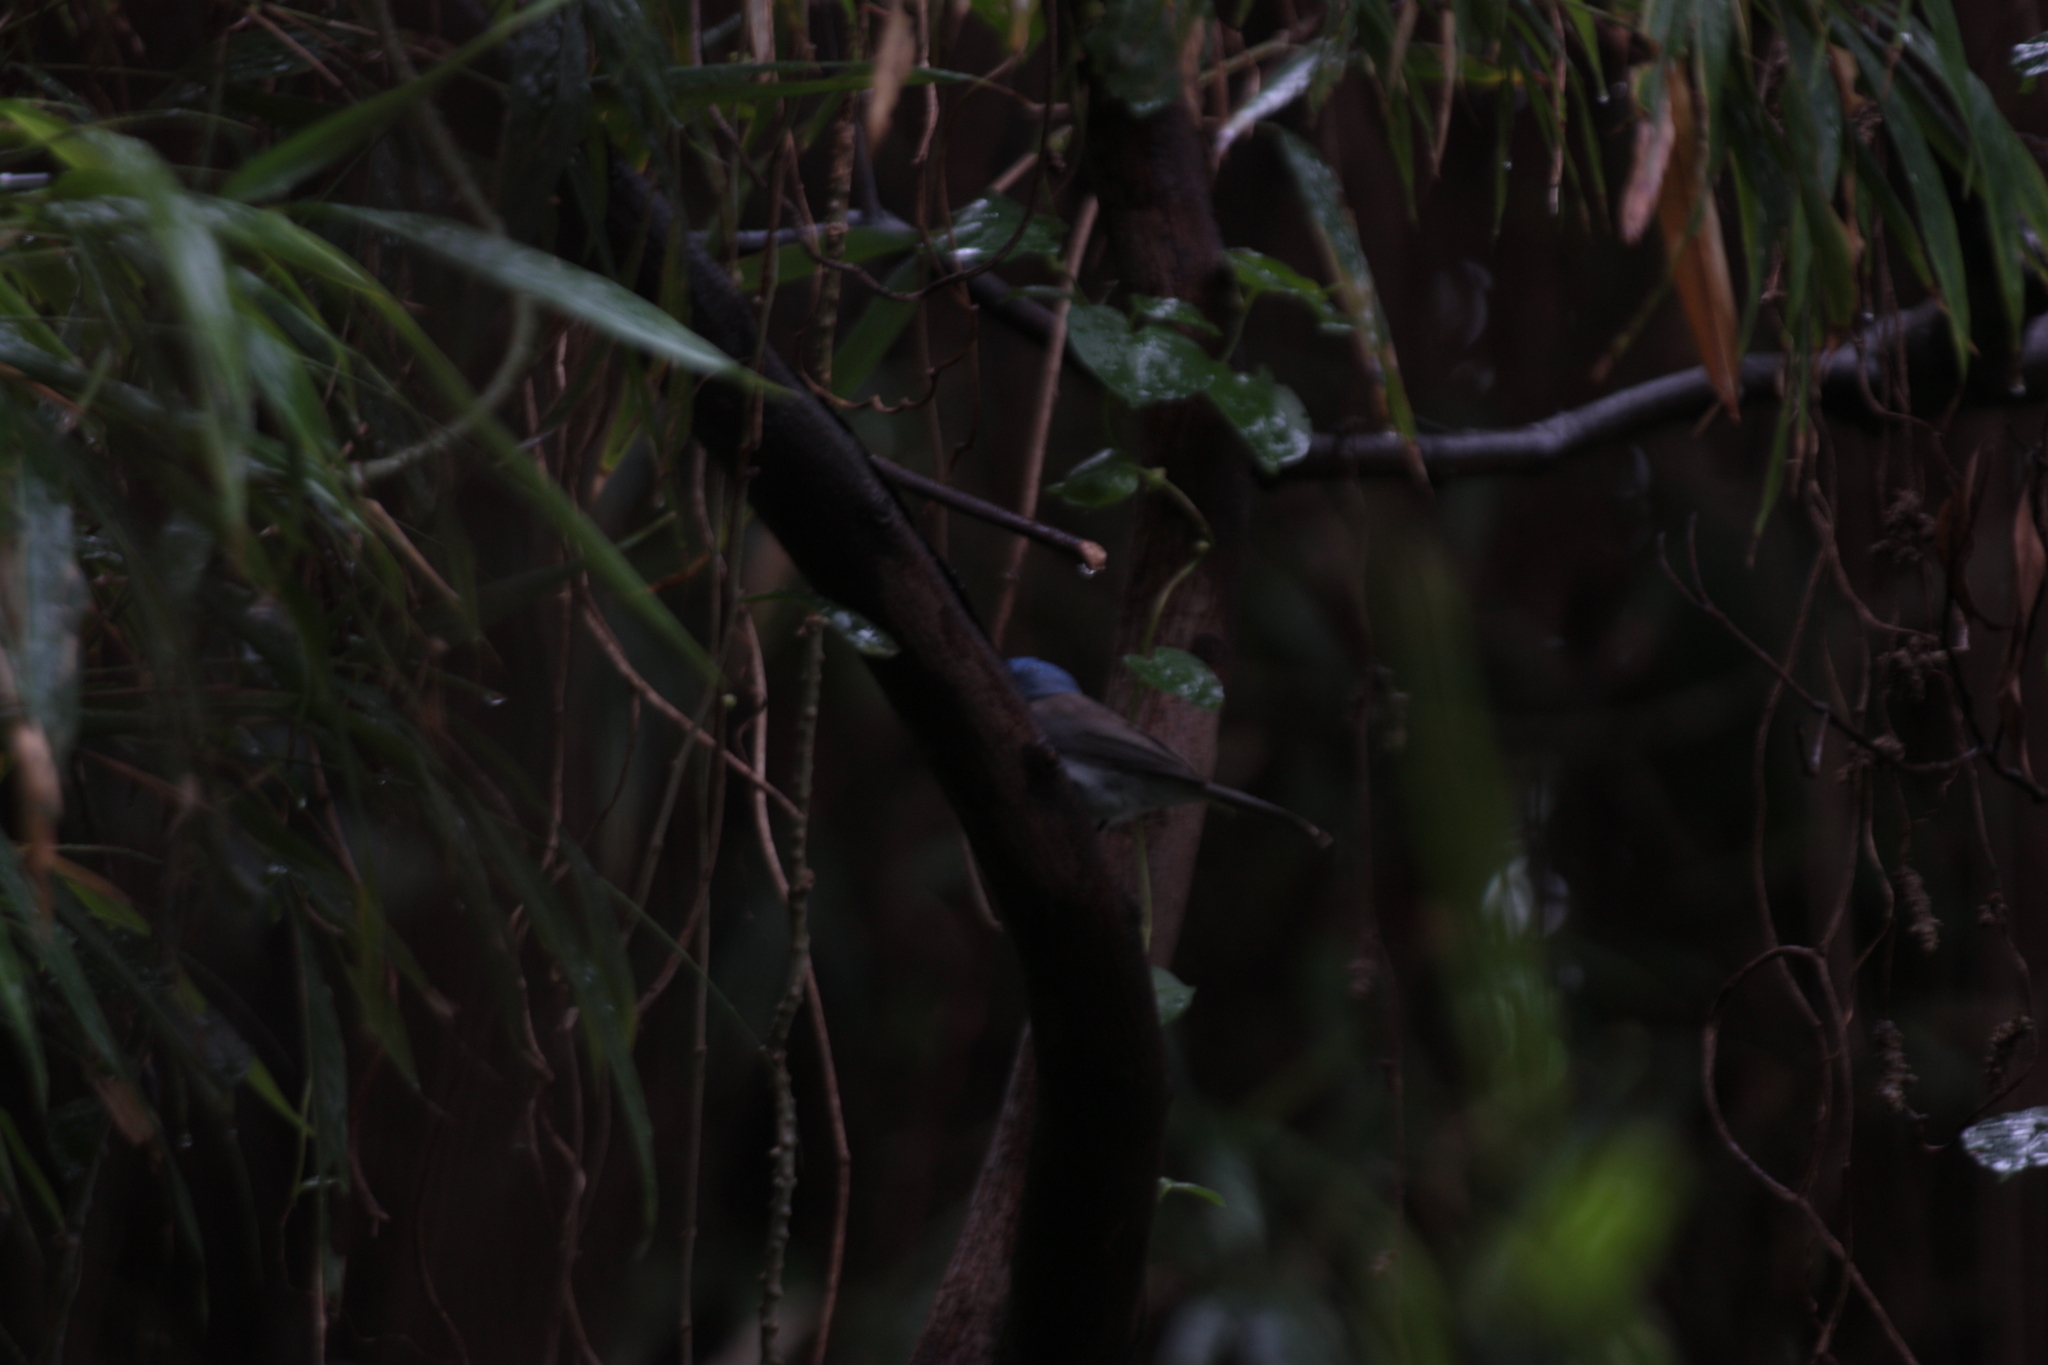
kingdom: Animalia
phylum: Chordata
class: Aves
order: Passeriformes
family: Monarchidae
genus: Hypothymis
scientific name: Hypothymis azurea
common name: Black-naped monarch
